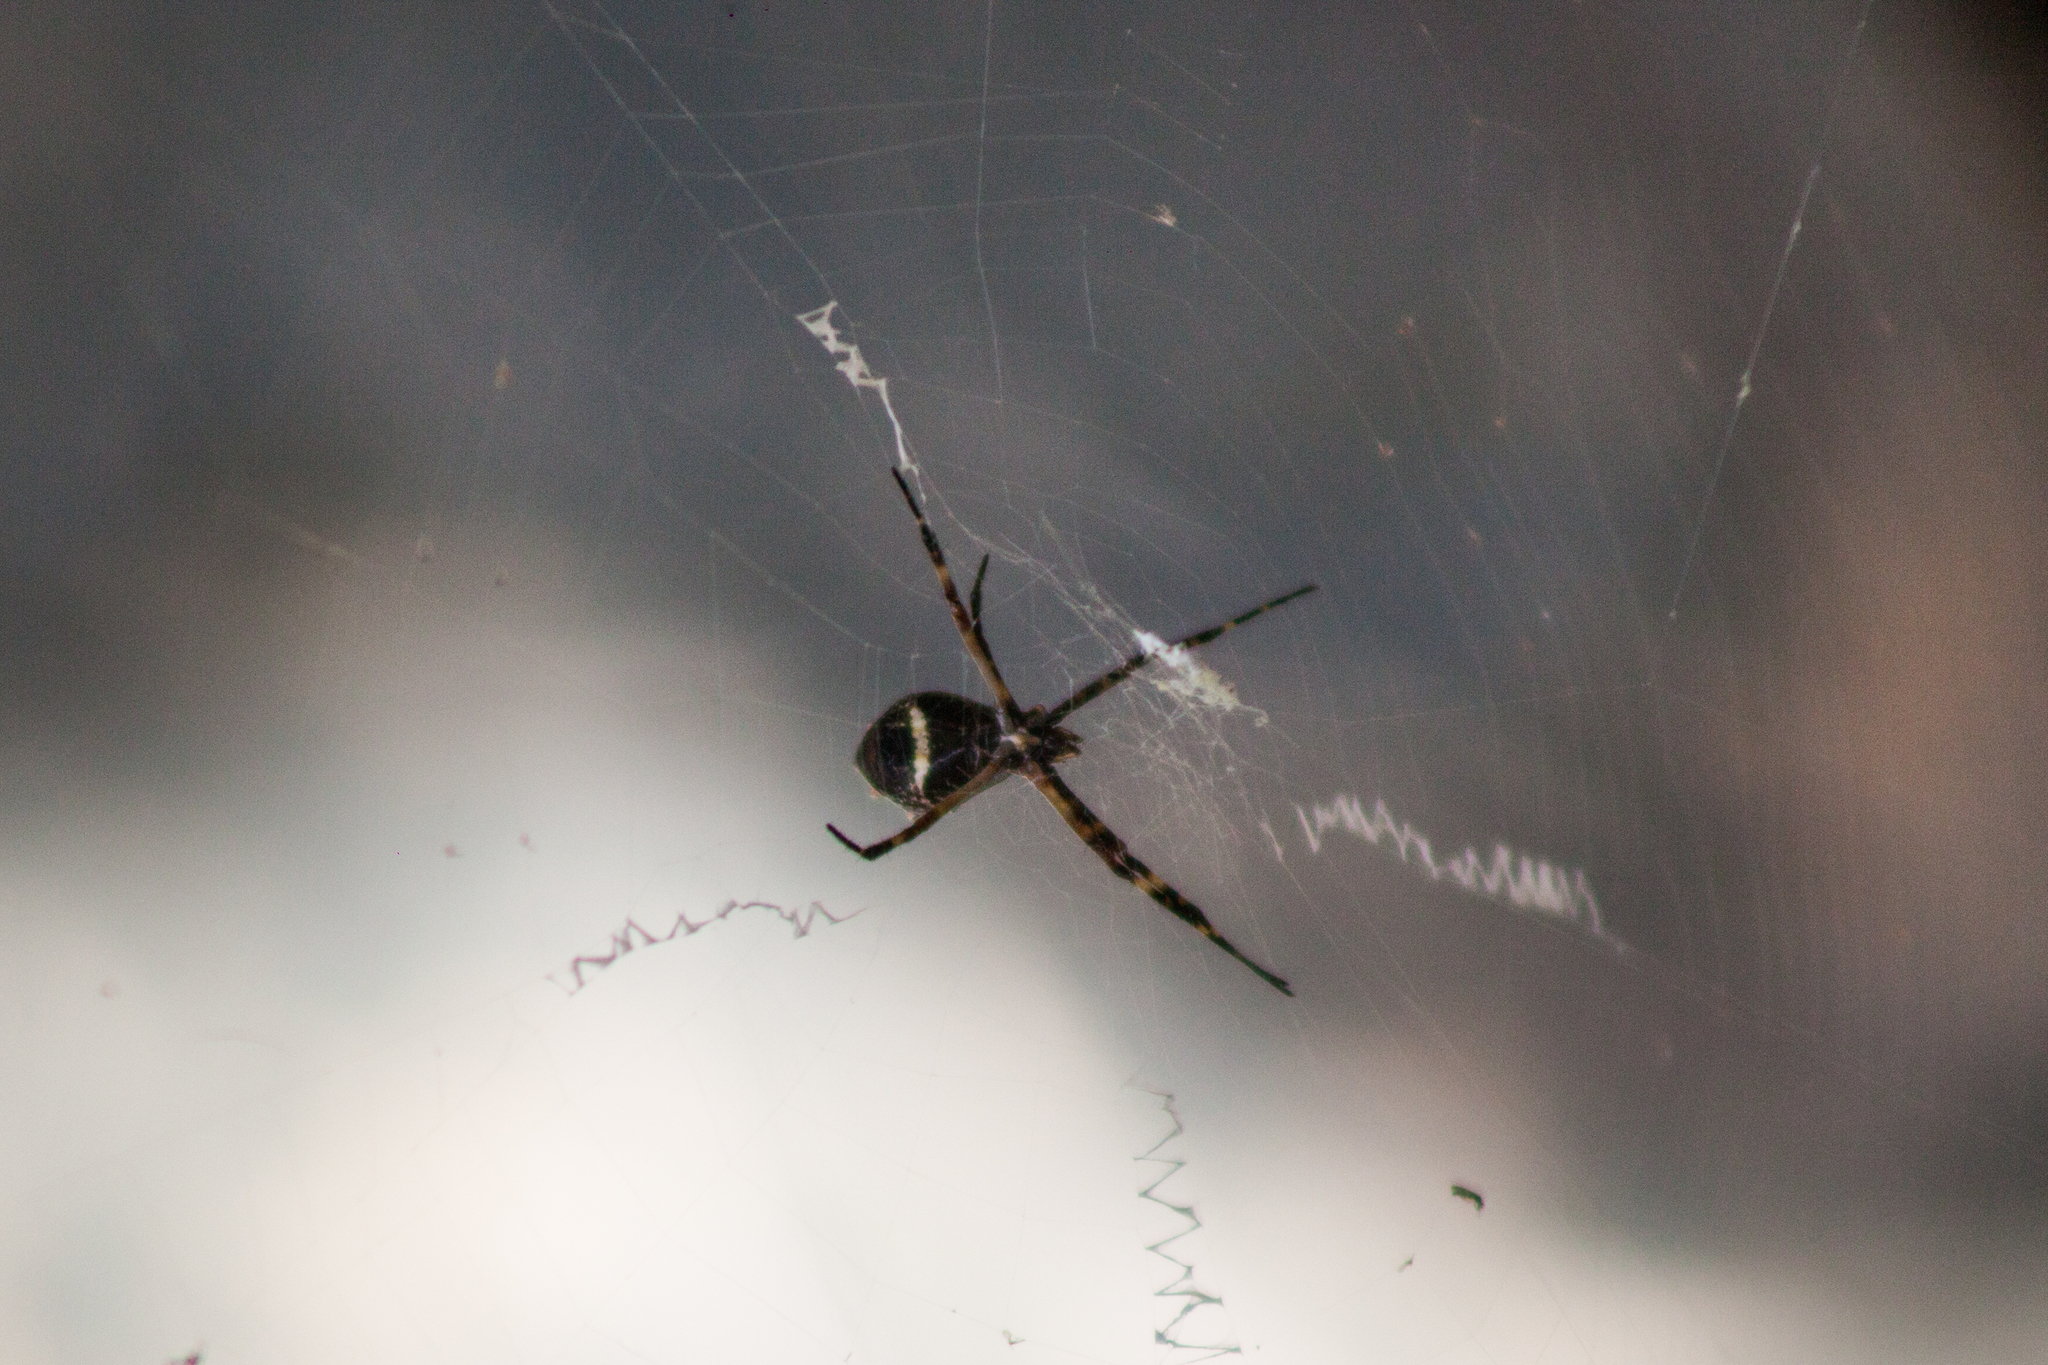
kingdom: Animalia
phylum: Arthropoda
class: Arachnida
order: Araneae
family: Araneidae
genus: Argiope
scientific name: Argiope argentata
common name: Orb weavers
